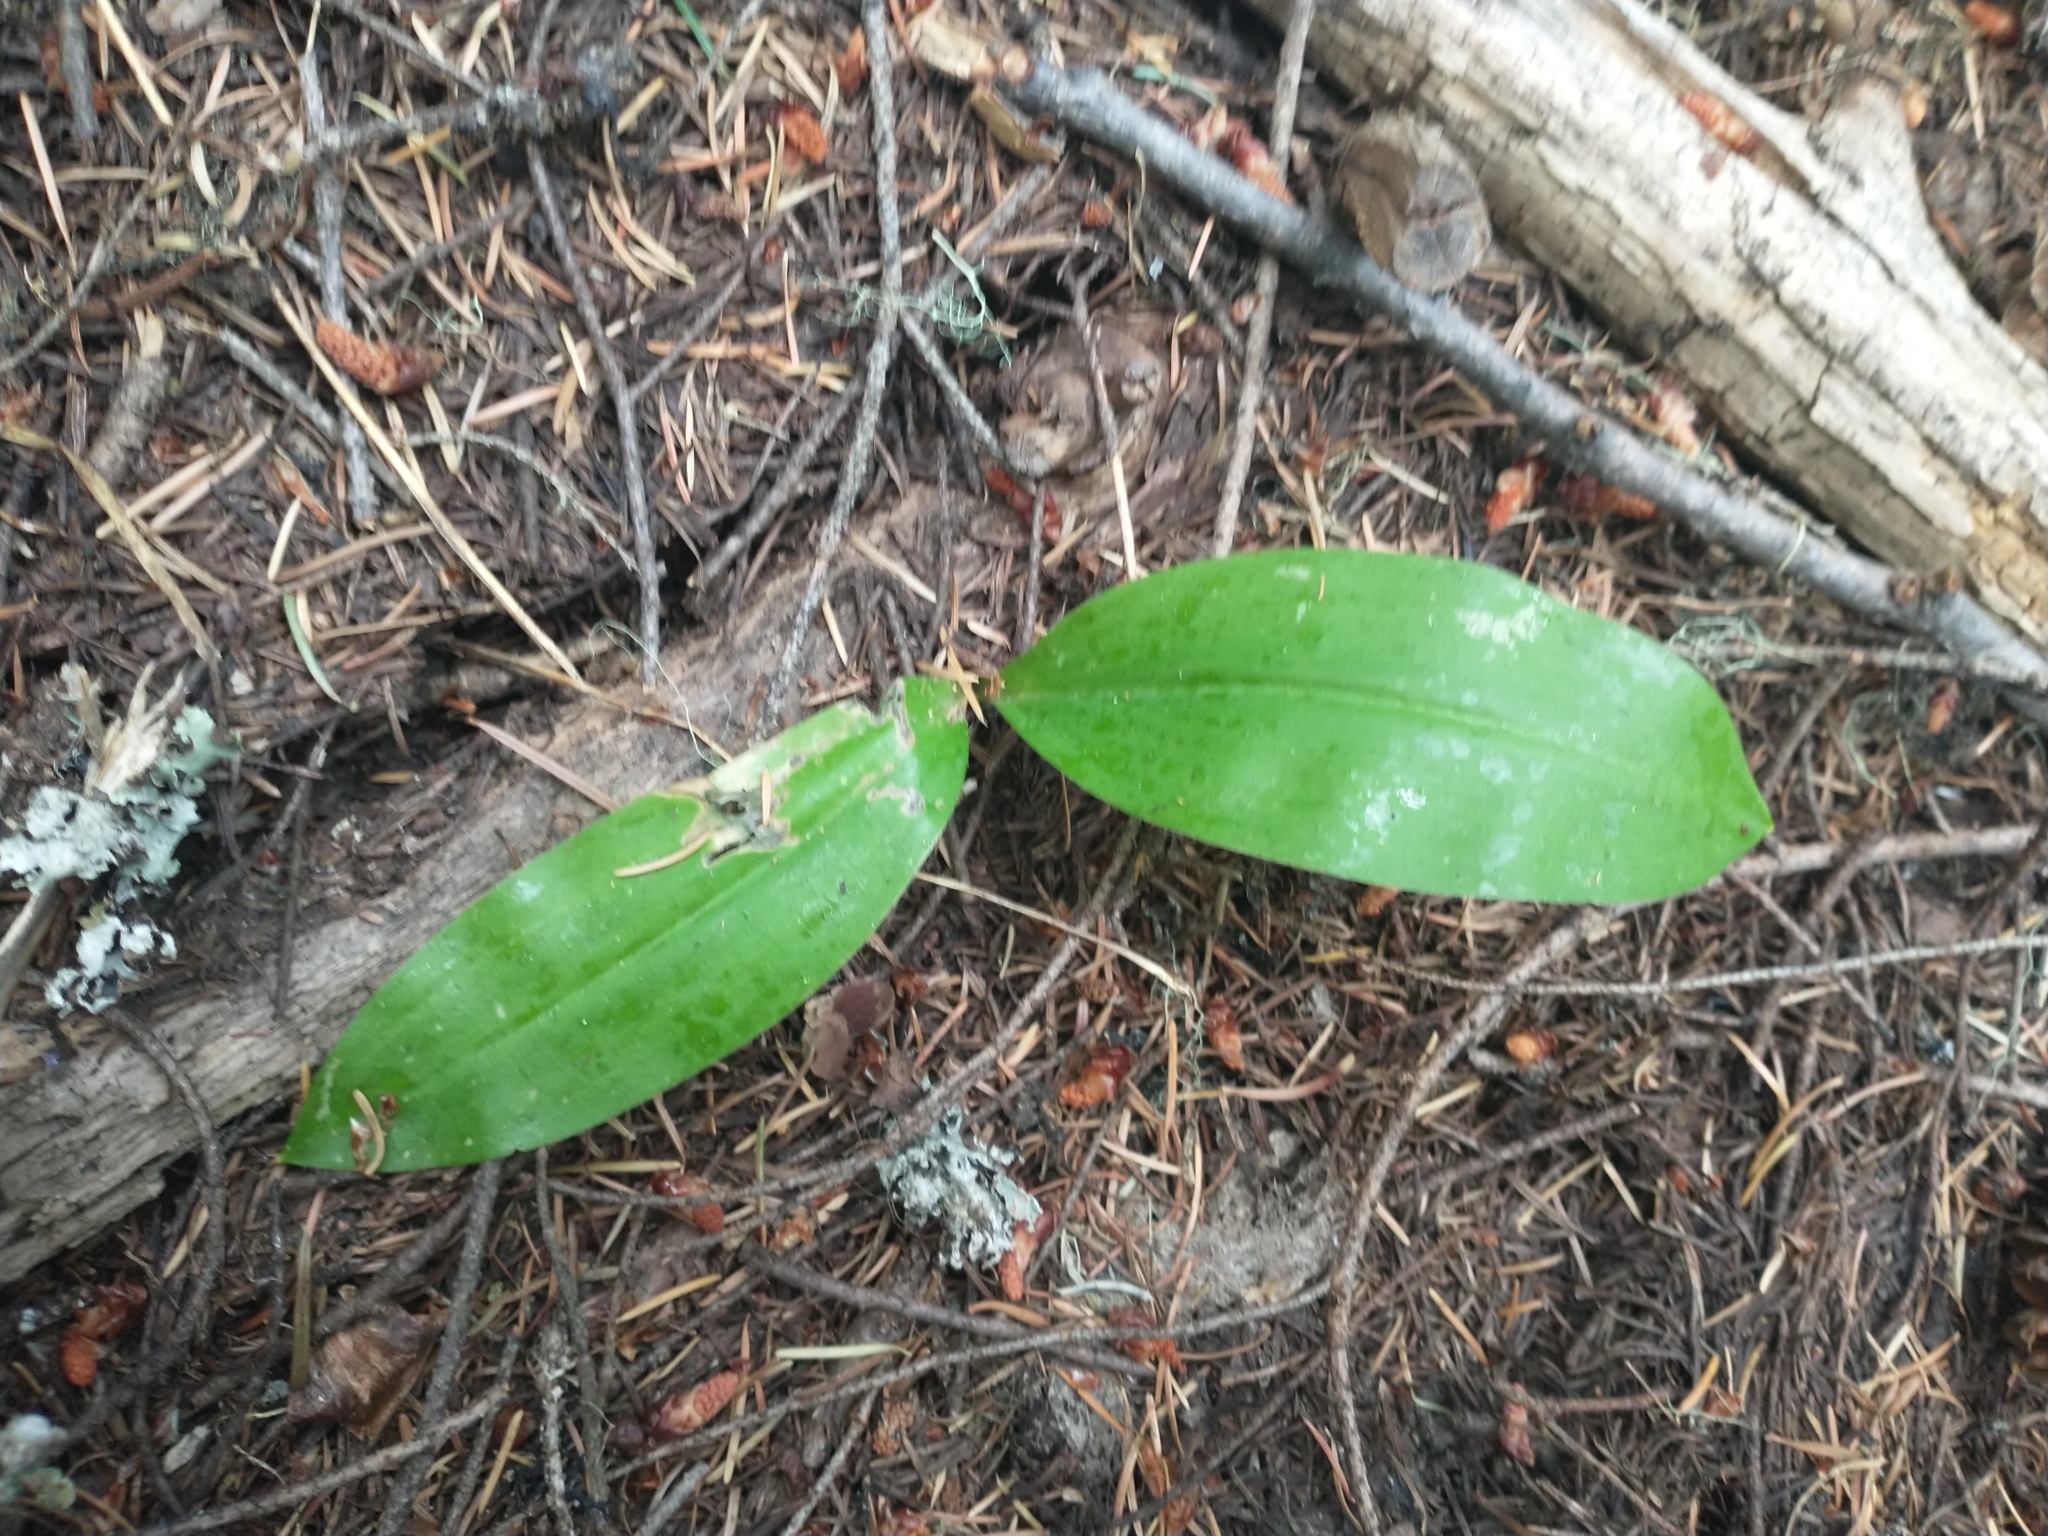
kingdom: Plantae
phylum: Tracheophyta
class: Liliopsida
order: Liliales
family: Liliaceae
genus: Clintonia
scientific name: Clintonia uniflora
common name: Queen's cup
